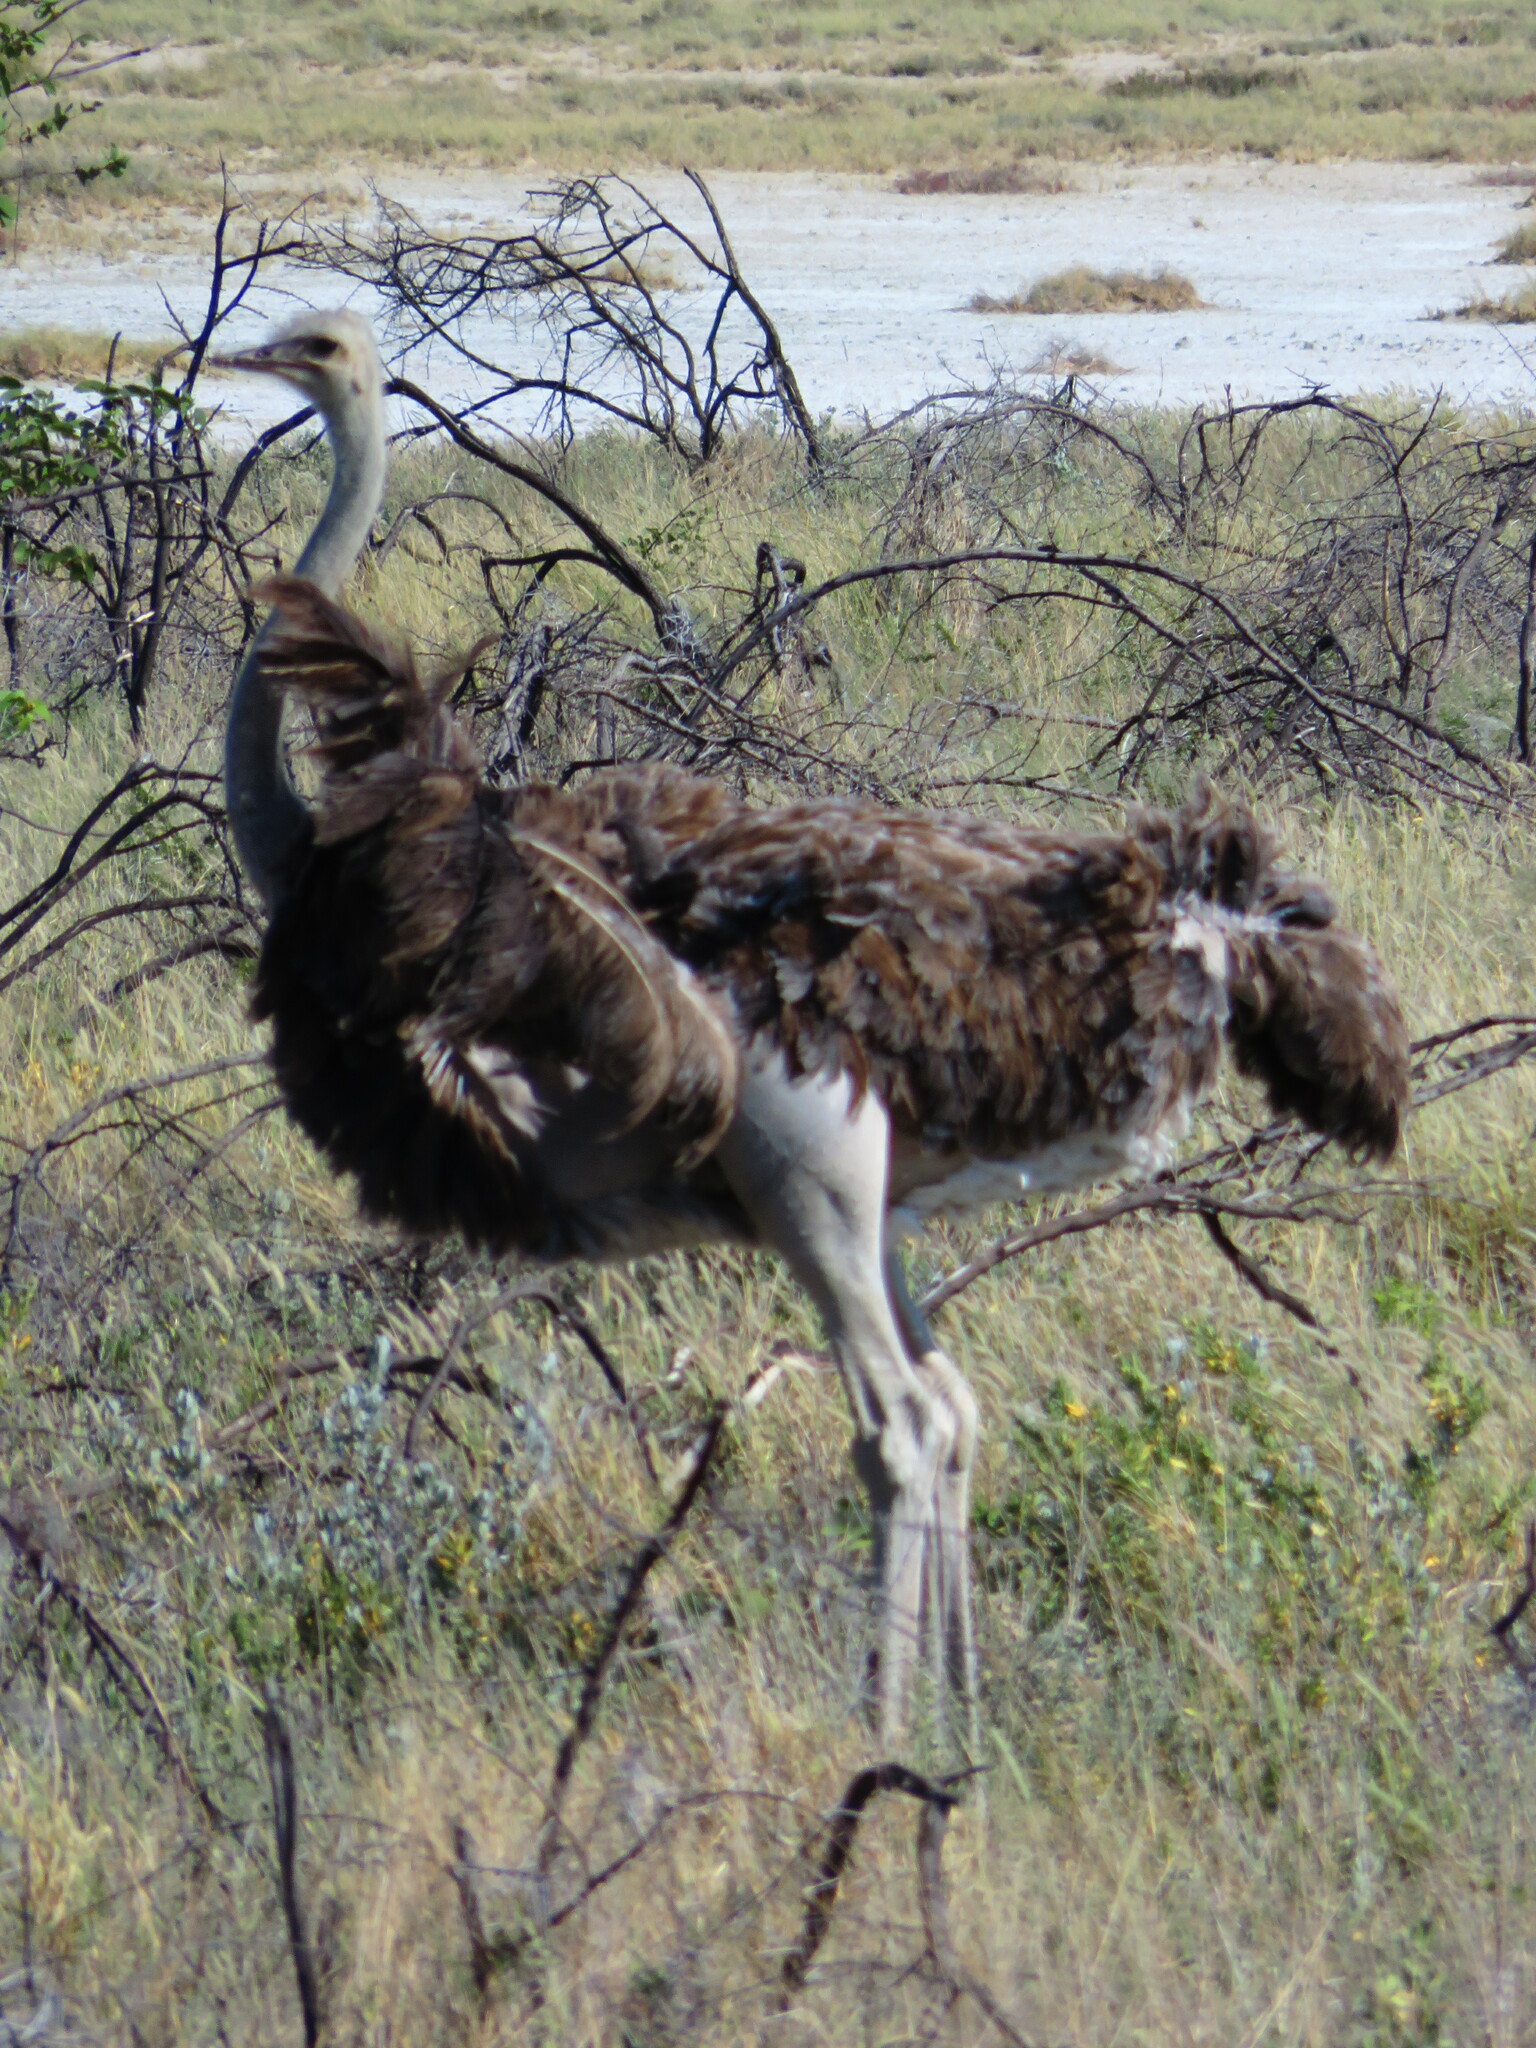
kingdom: Animalia
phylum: Chordata
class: Aves
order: Struthioniformes
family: Struthionidae
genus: Struthio
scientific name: Struthio camelus
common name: Common ostrich
